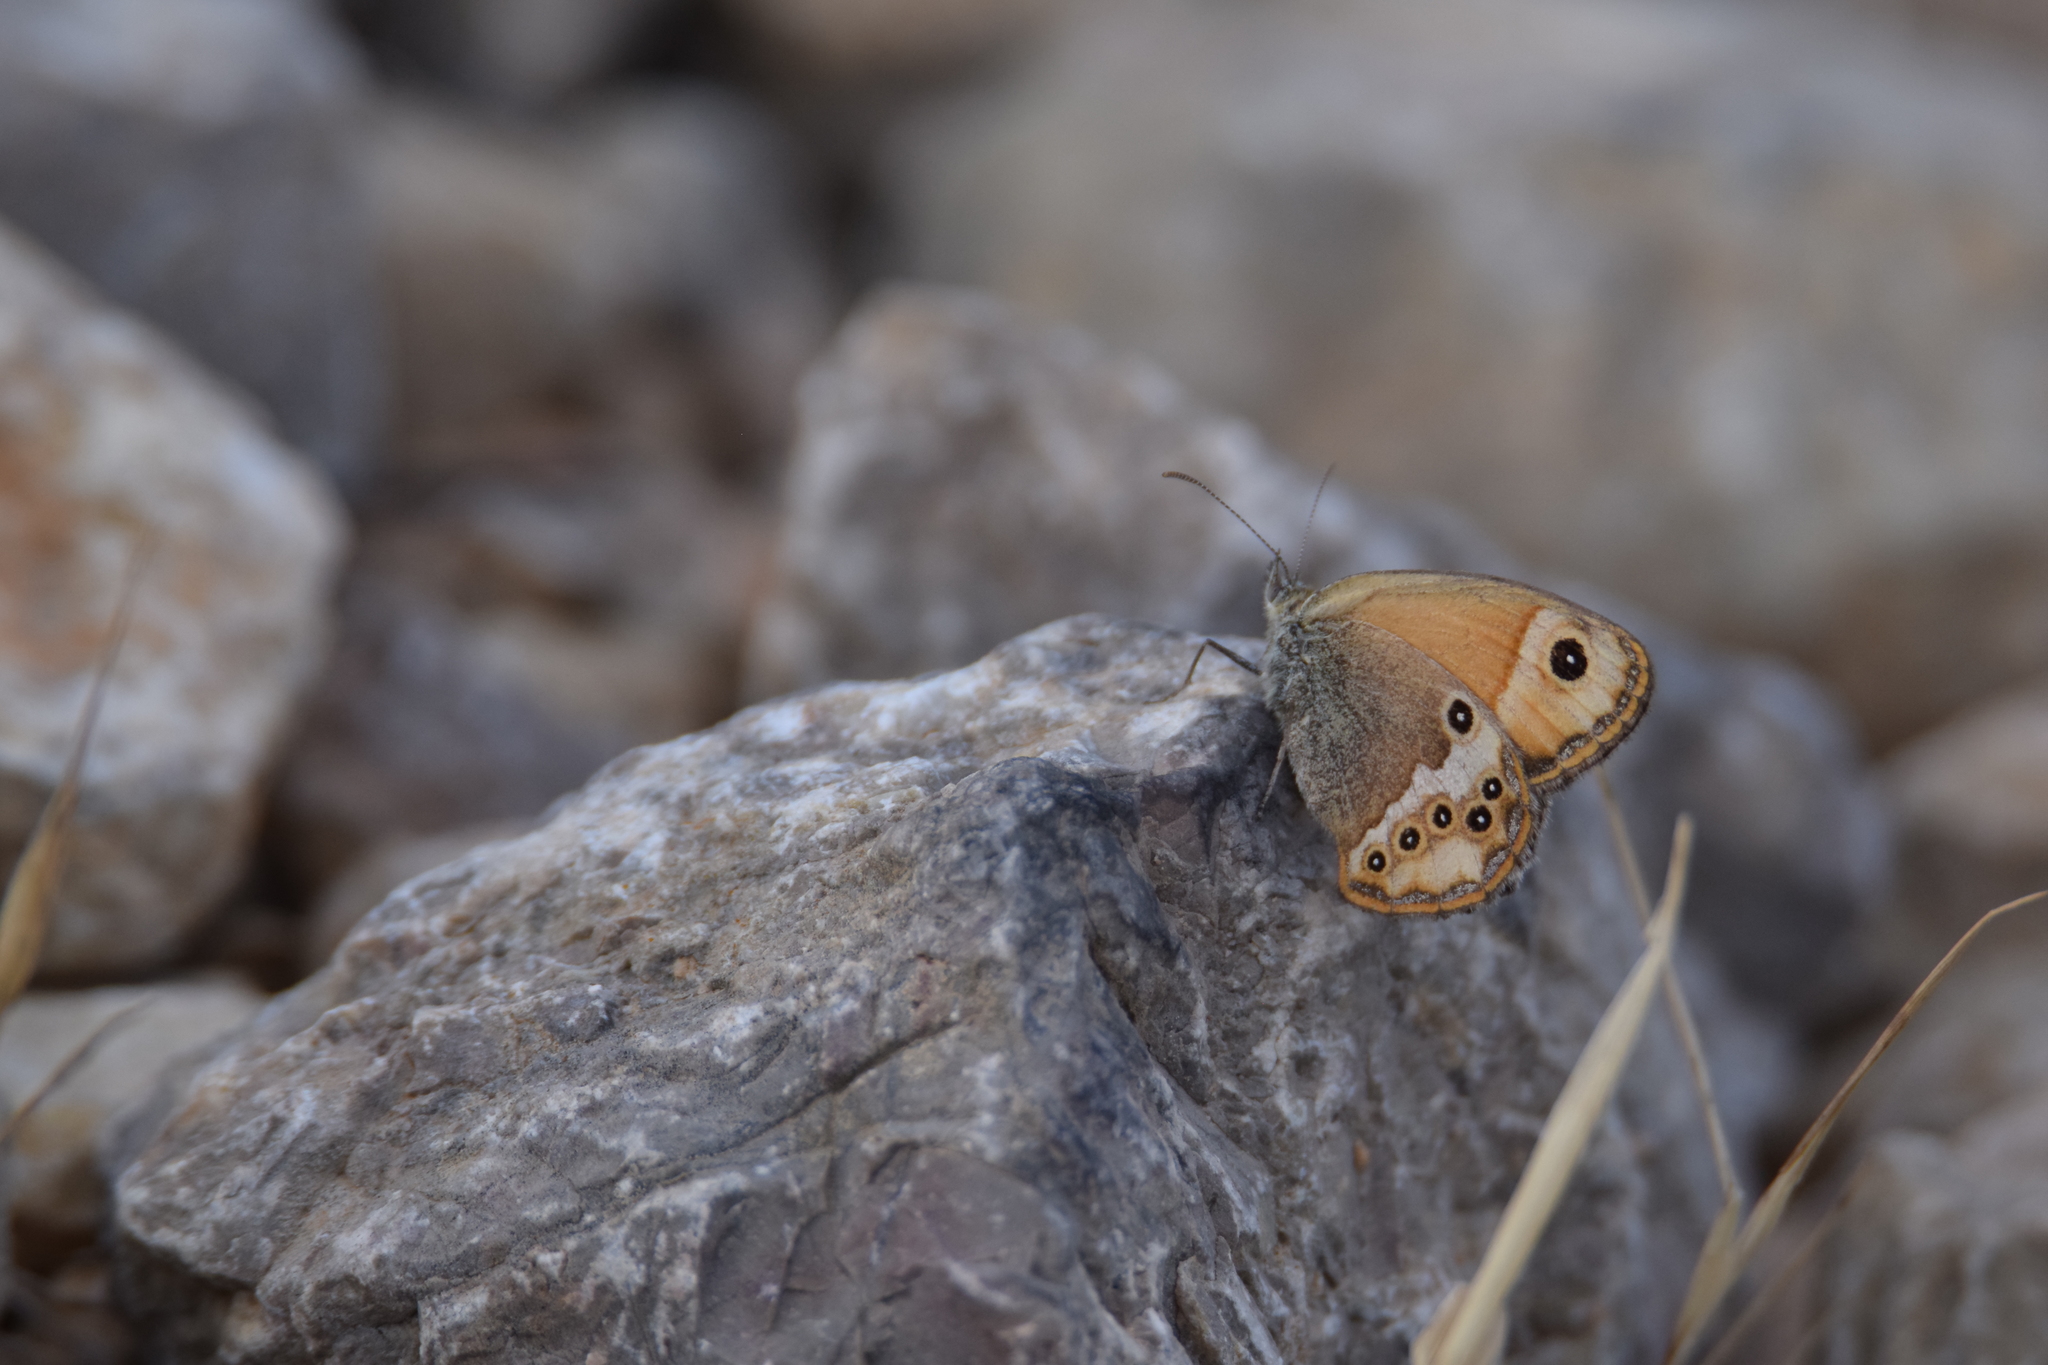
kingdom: Animalia
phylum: Arthropoda
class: Insecta
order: Lepidoptera
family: Nymphalidae
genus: Coenonympha
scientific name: Coenonympha dorus
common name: Dusky heath
